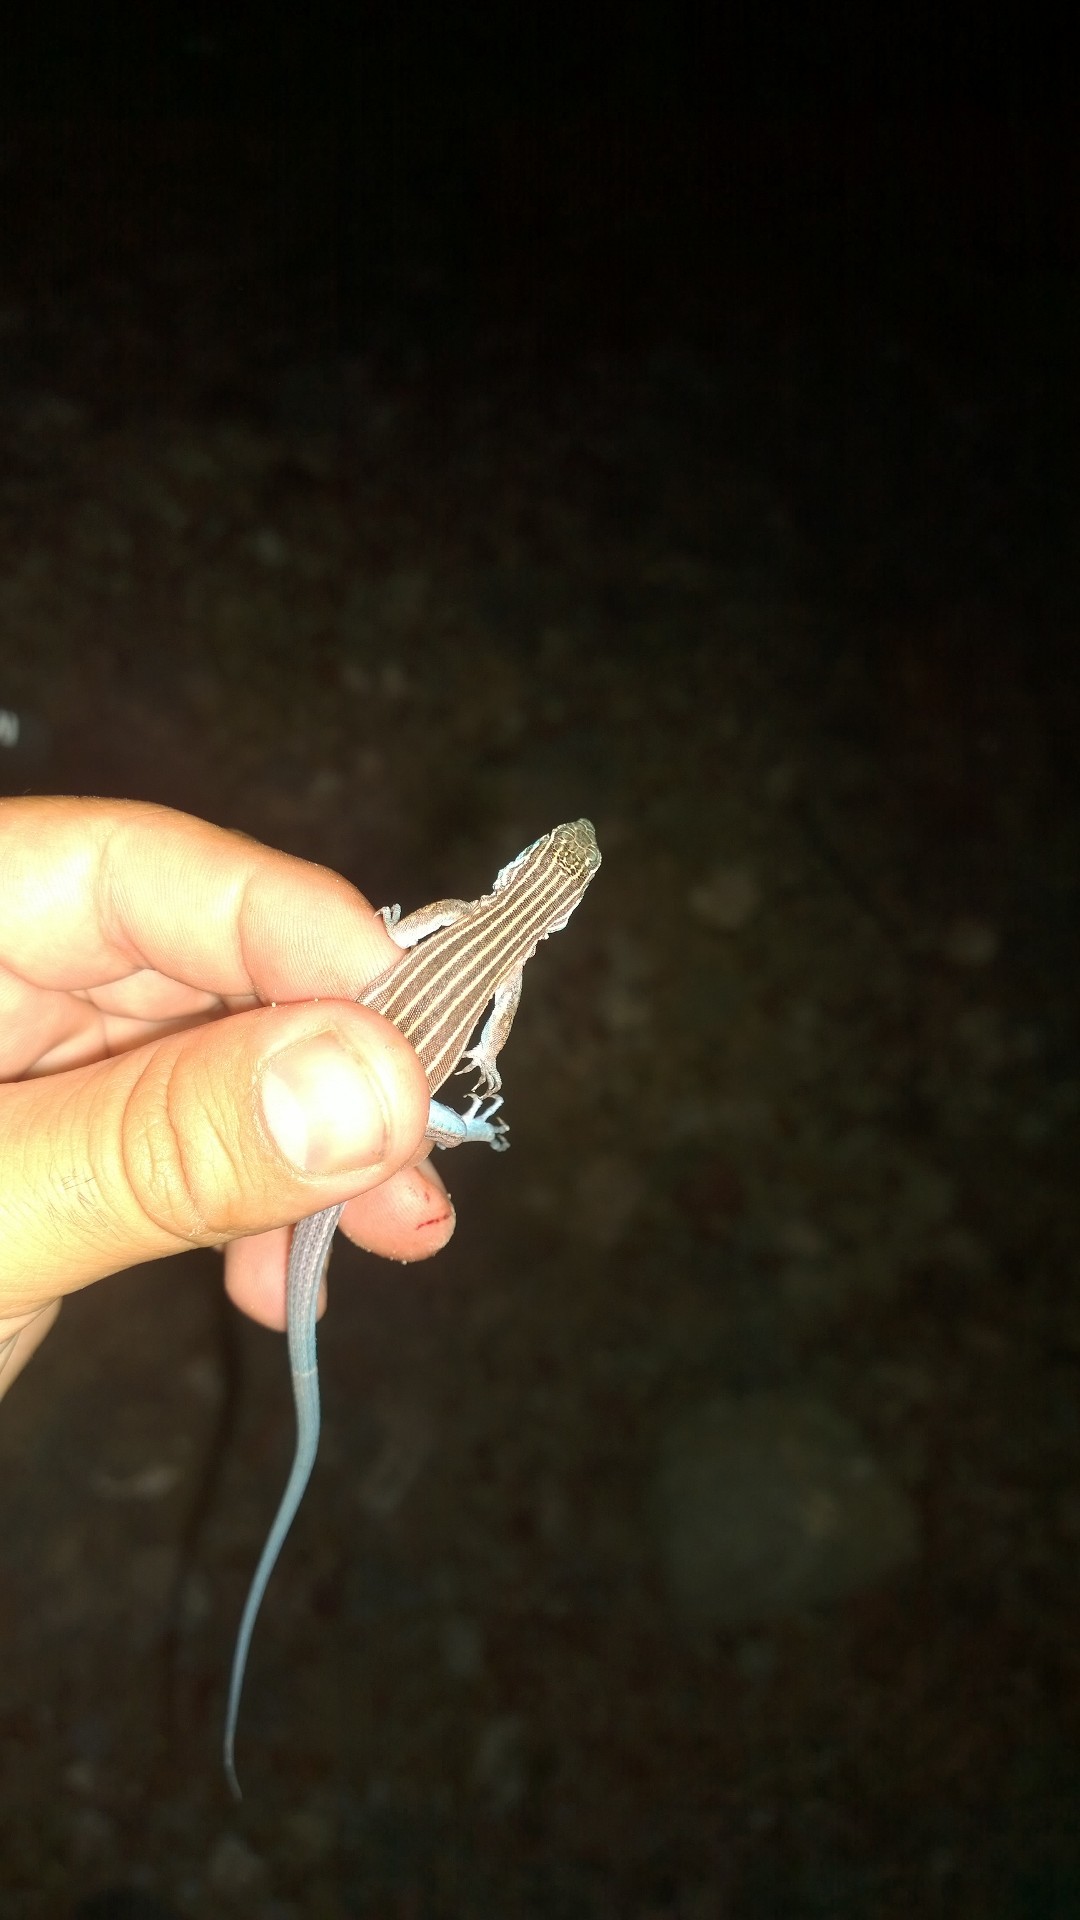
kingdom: Animalia
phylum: Chordata
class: Squamata
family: Teiidae
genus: Aspidoscelis
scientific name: Aspidoscelis inornatus
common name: Little striped whiptail
